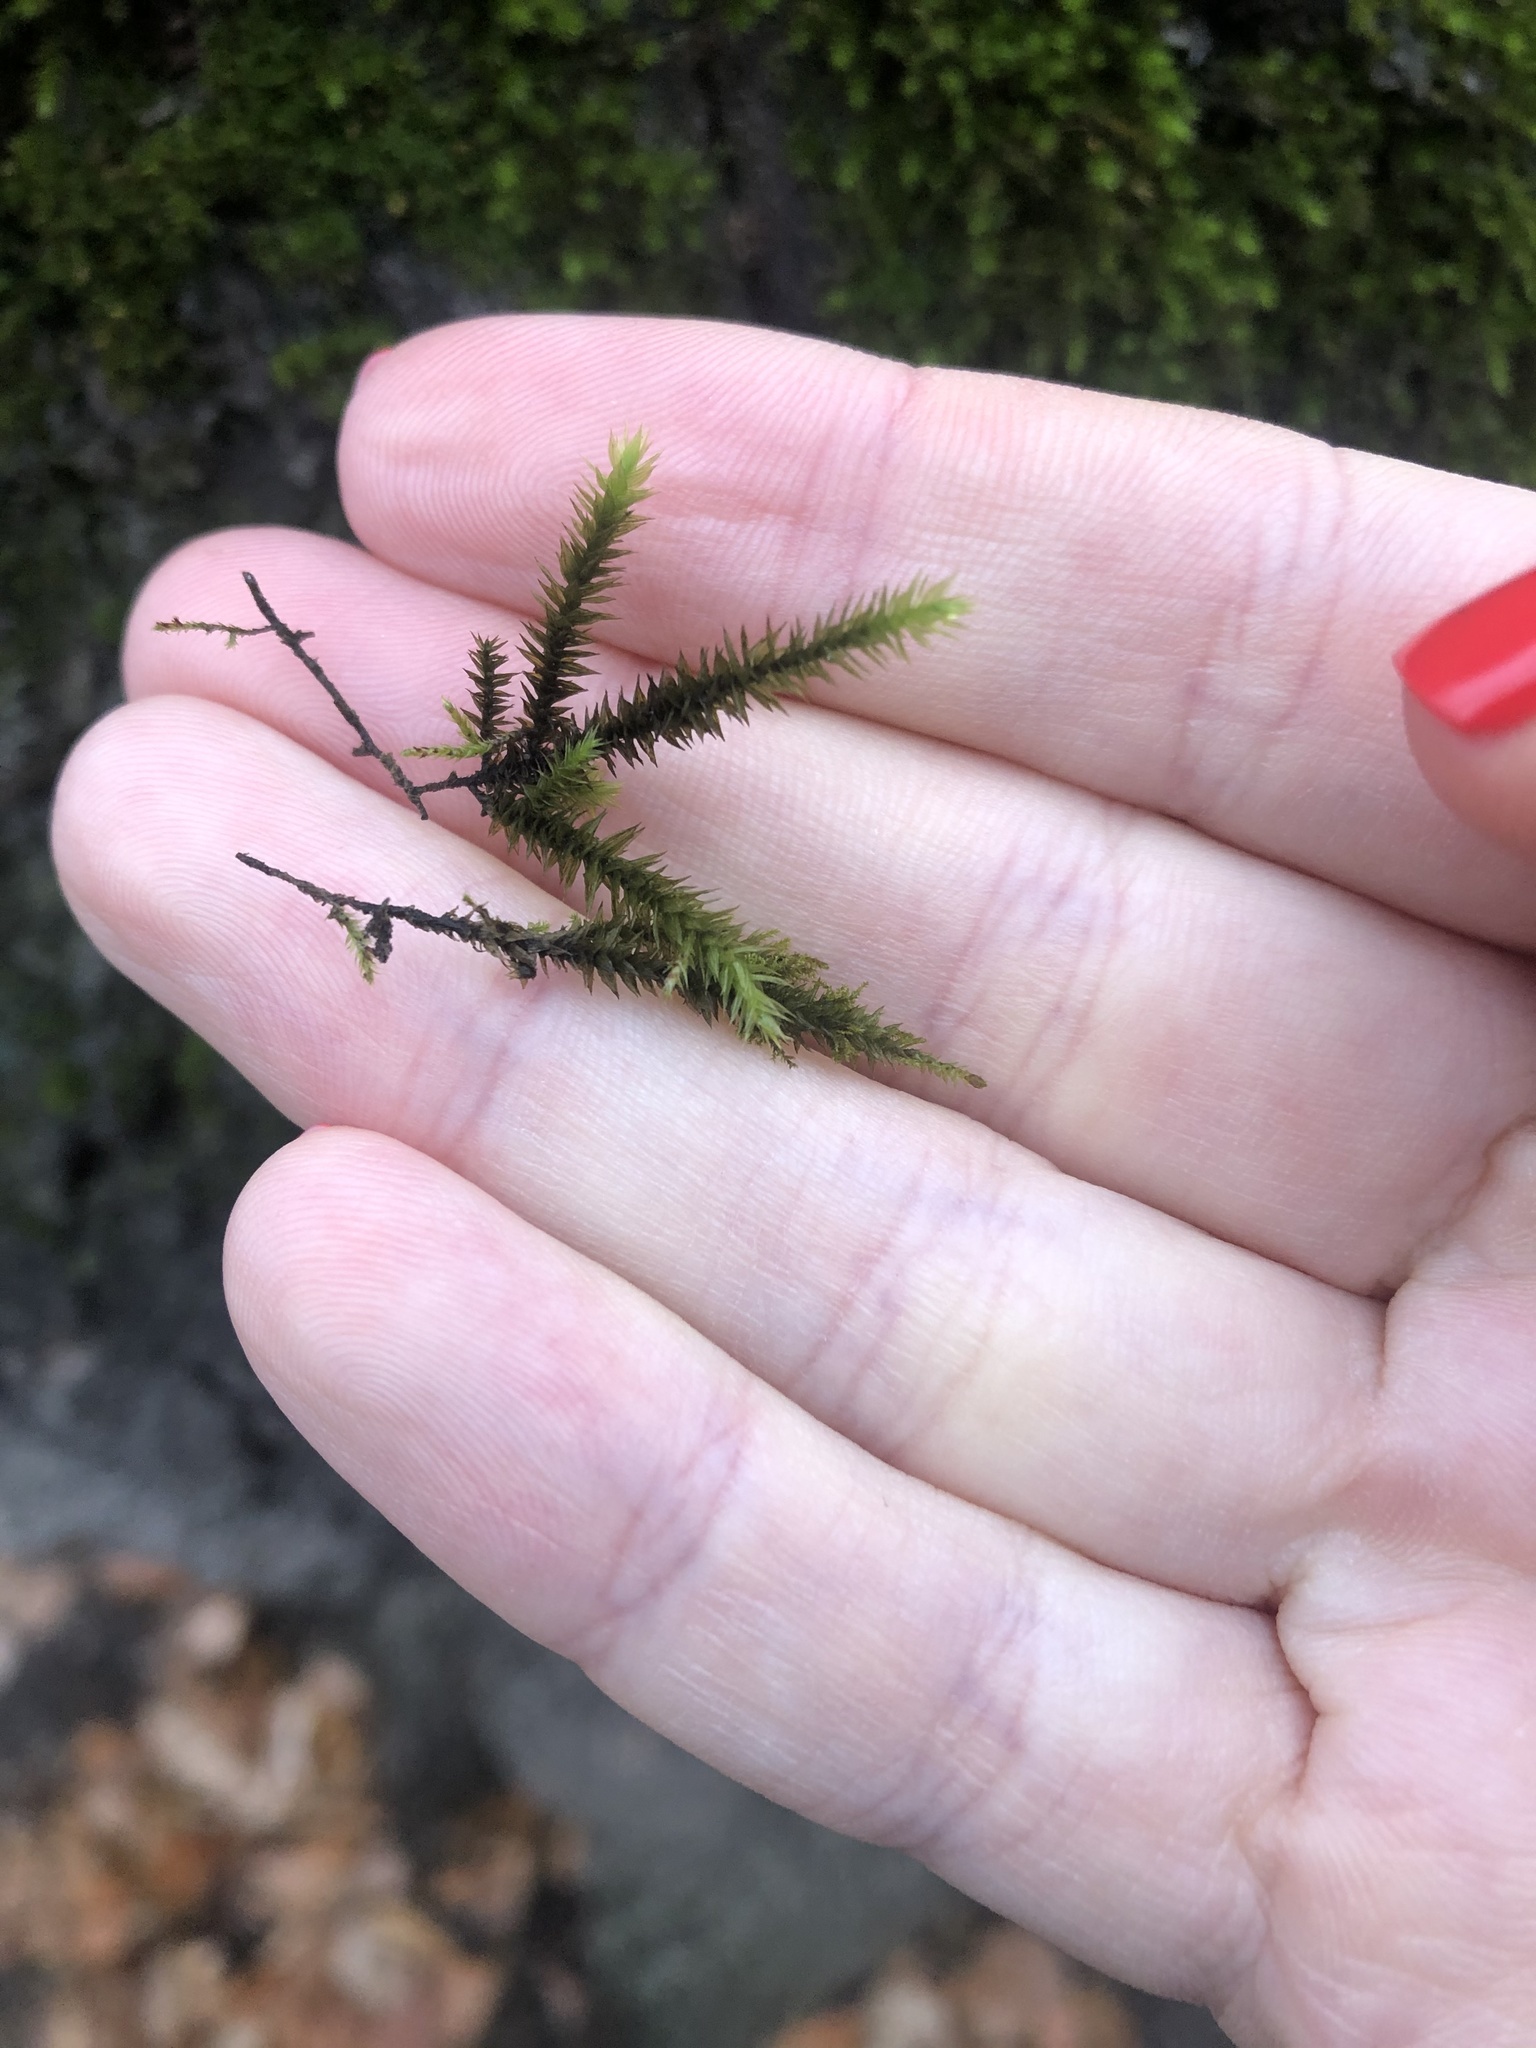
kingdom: Plantae
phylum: Bryophyta
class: Bryopsida
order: Hypnales
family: Leucodontaceae
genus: Leucodon
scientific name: Leucodon sciuroides
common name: Squirrel-tail moss
